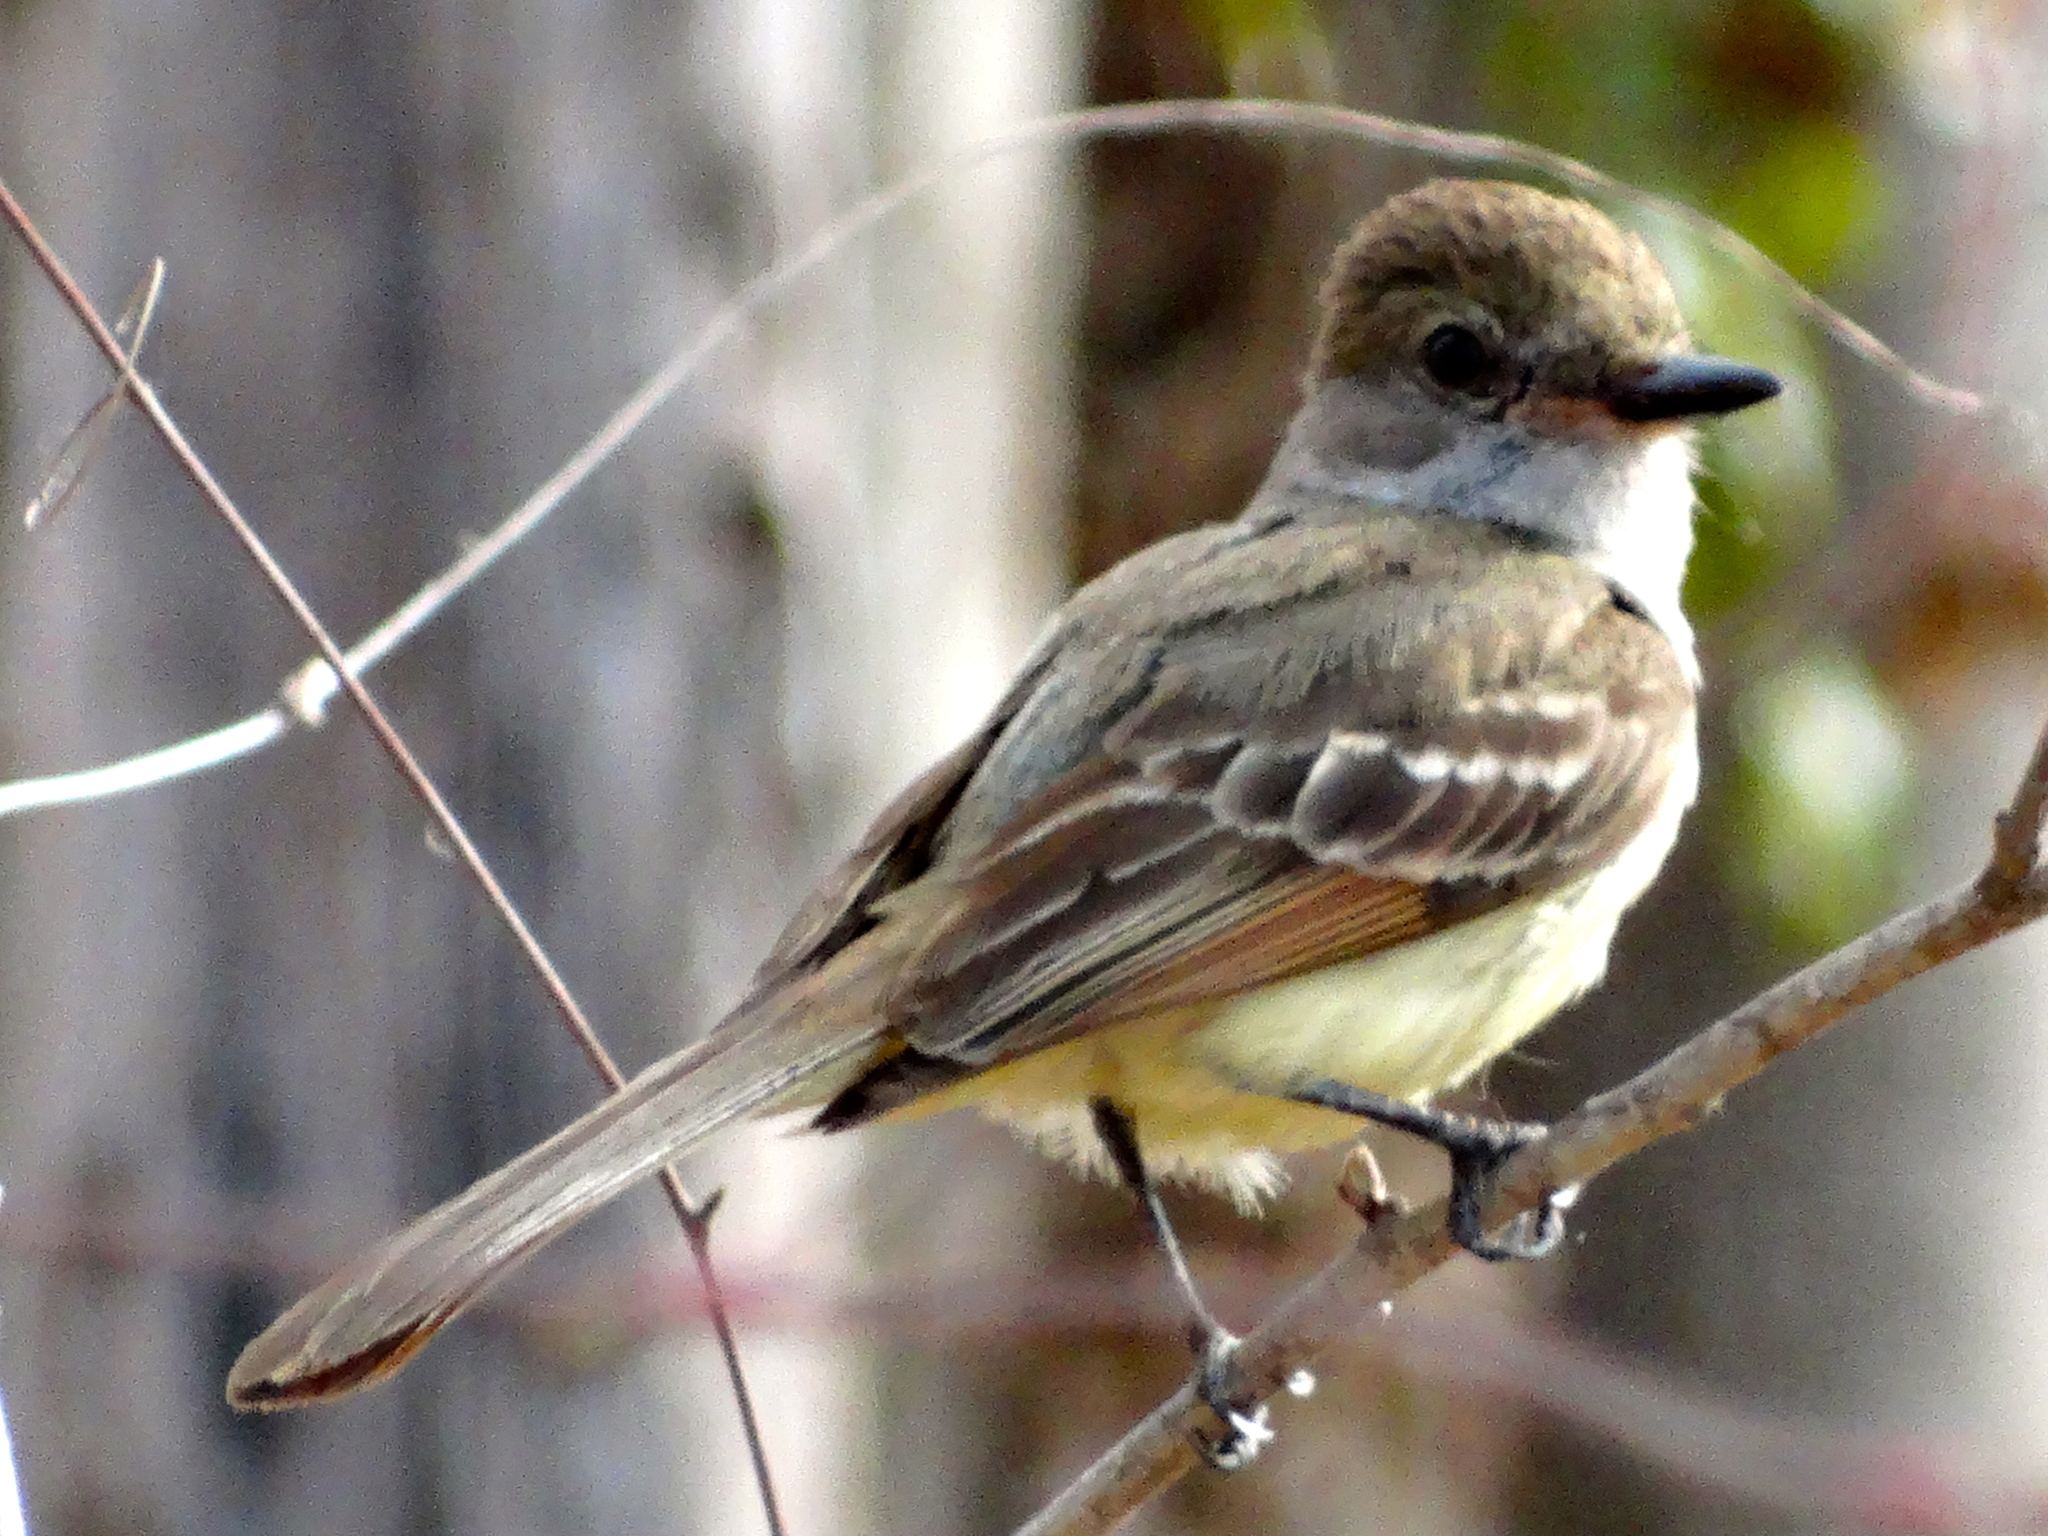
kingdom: Animalia
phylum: Chordata
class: Aves
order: Passeriformes
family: Tyrannidae
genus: Myiarchus
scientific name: Myiarchus cinerascens
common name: Ash-throated flycatcher
